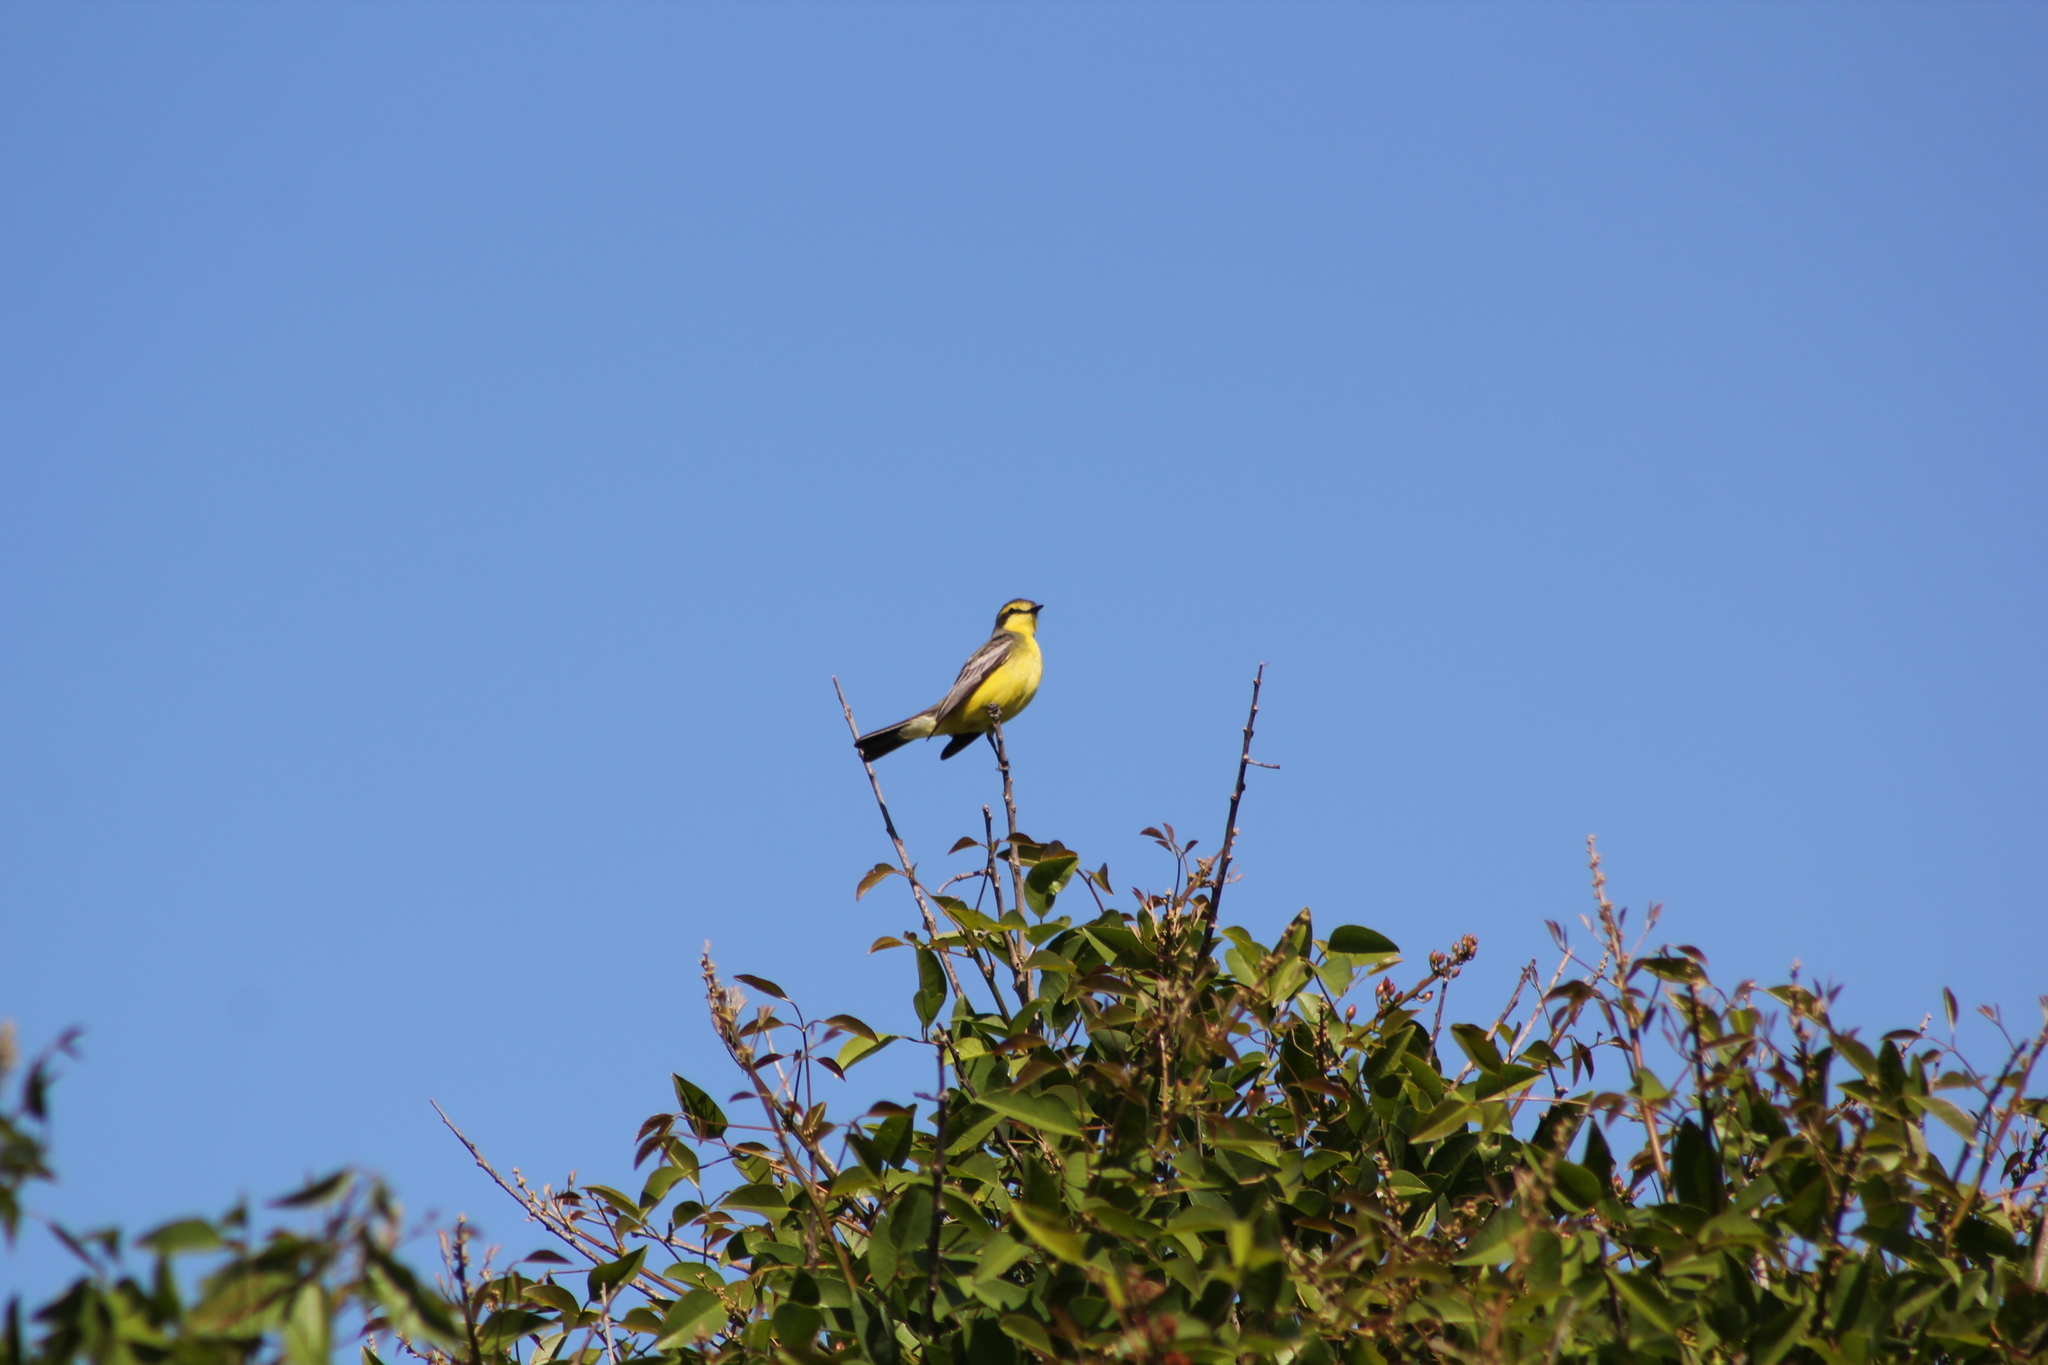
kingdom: Animalia
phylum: Chordata
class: Aves
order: Passeriformes
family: Tyrannidae
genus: Satrapa
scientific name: Satrapa icterophrys
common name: Yellow-browed tyrant
